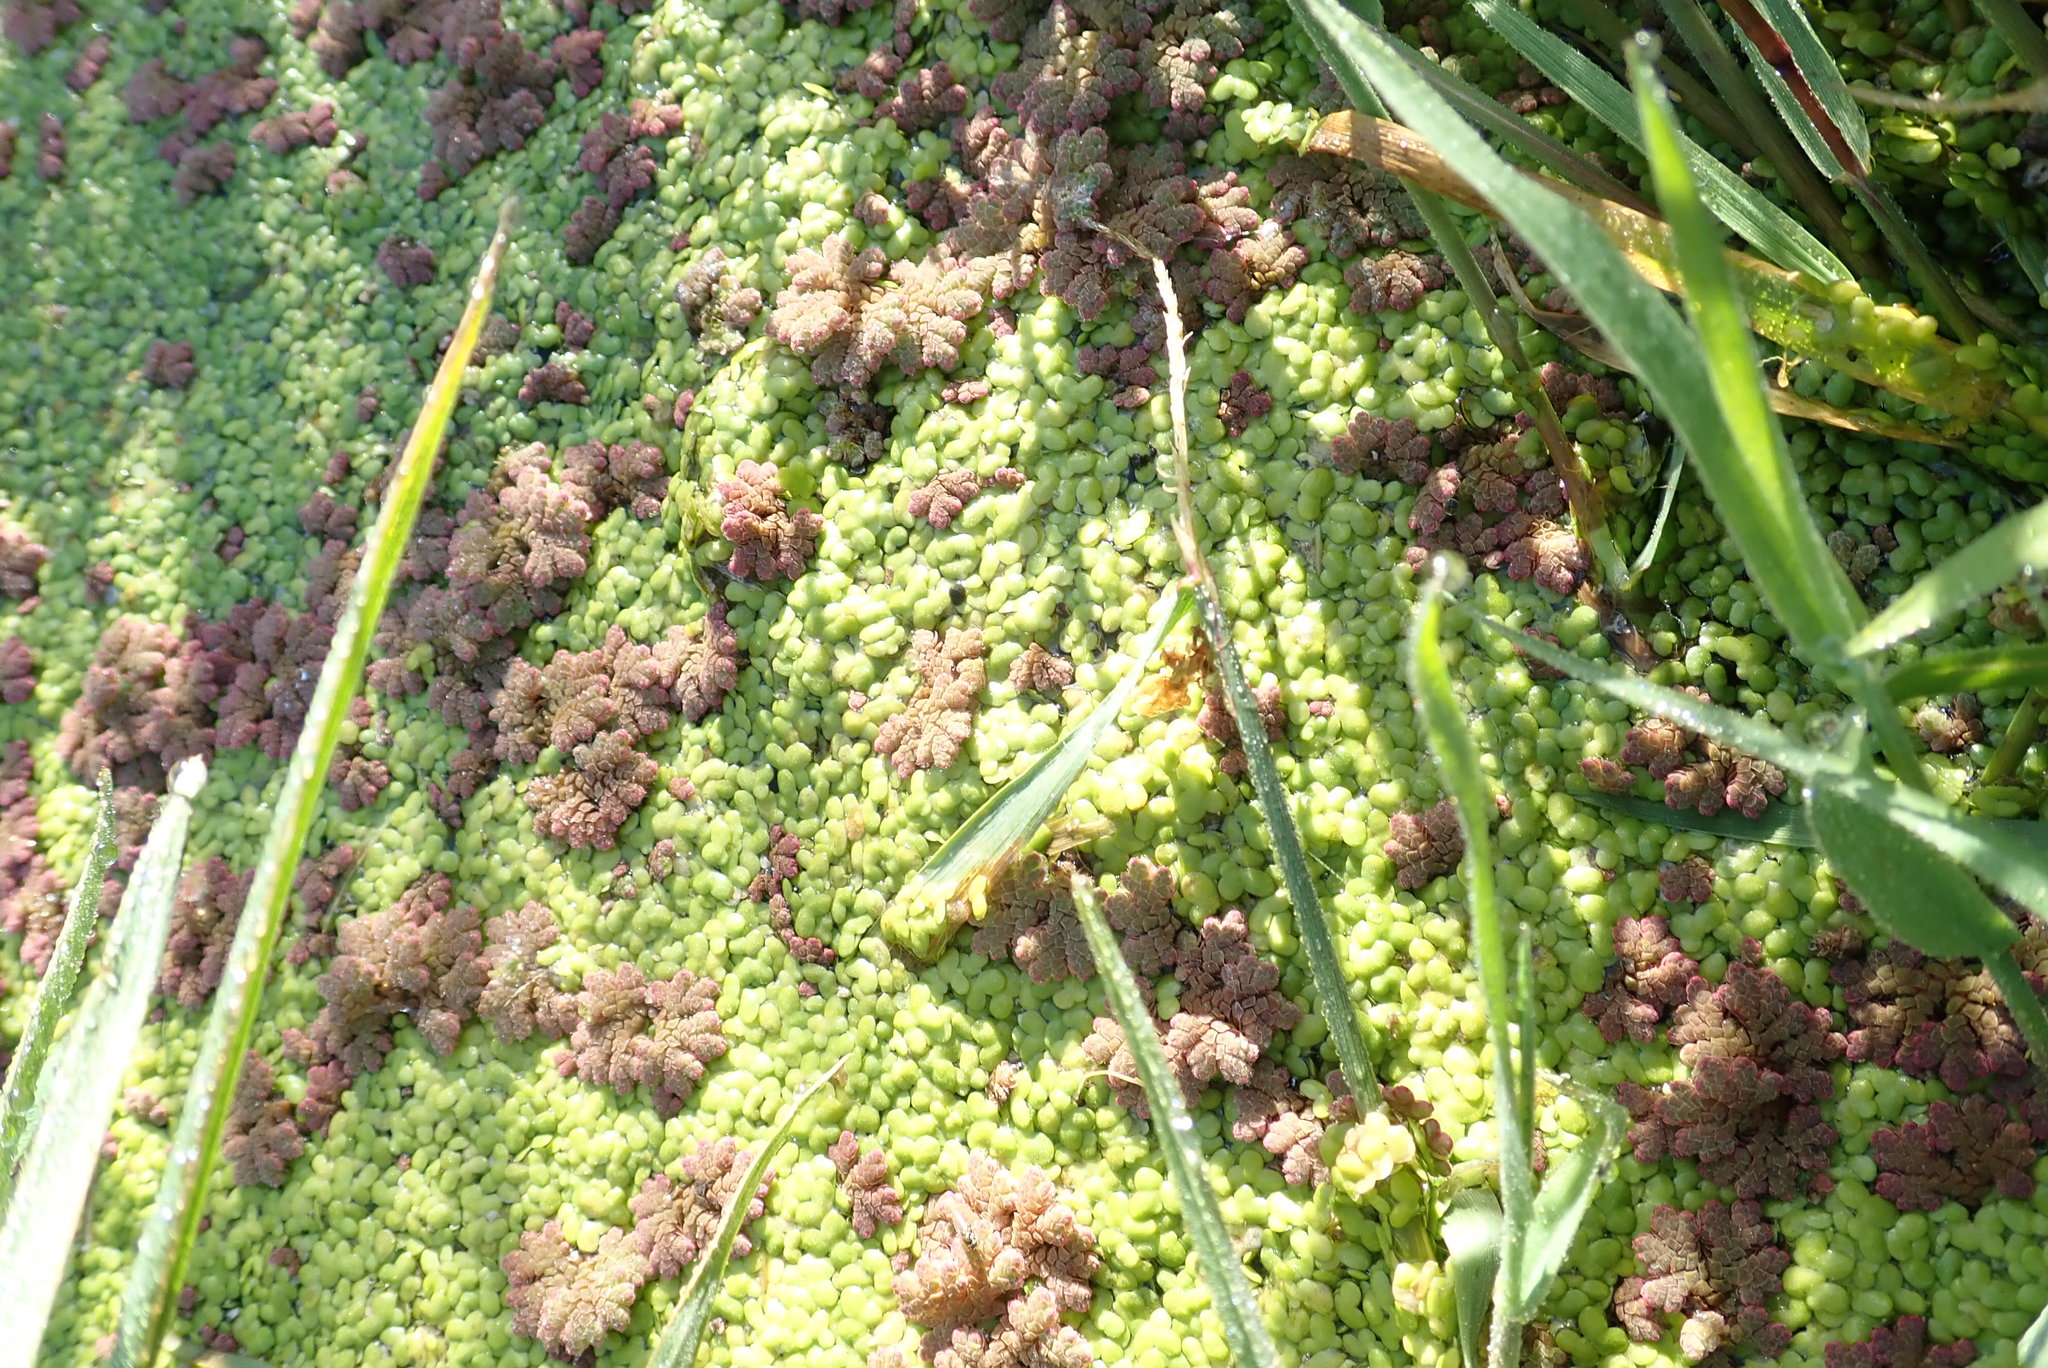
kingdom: Plantae
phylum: Tracheophyta
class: Polypodiopsida
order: Salviniales
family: Salviniaceae
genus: Azolla
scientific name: Azolla rubra
